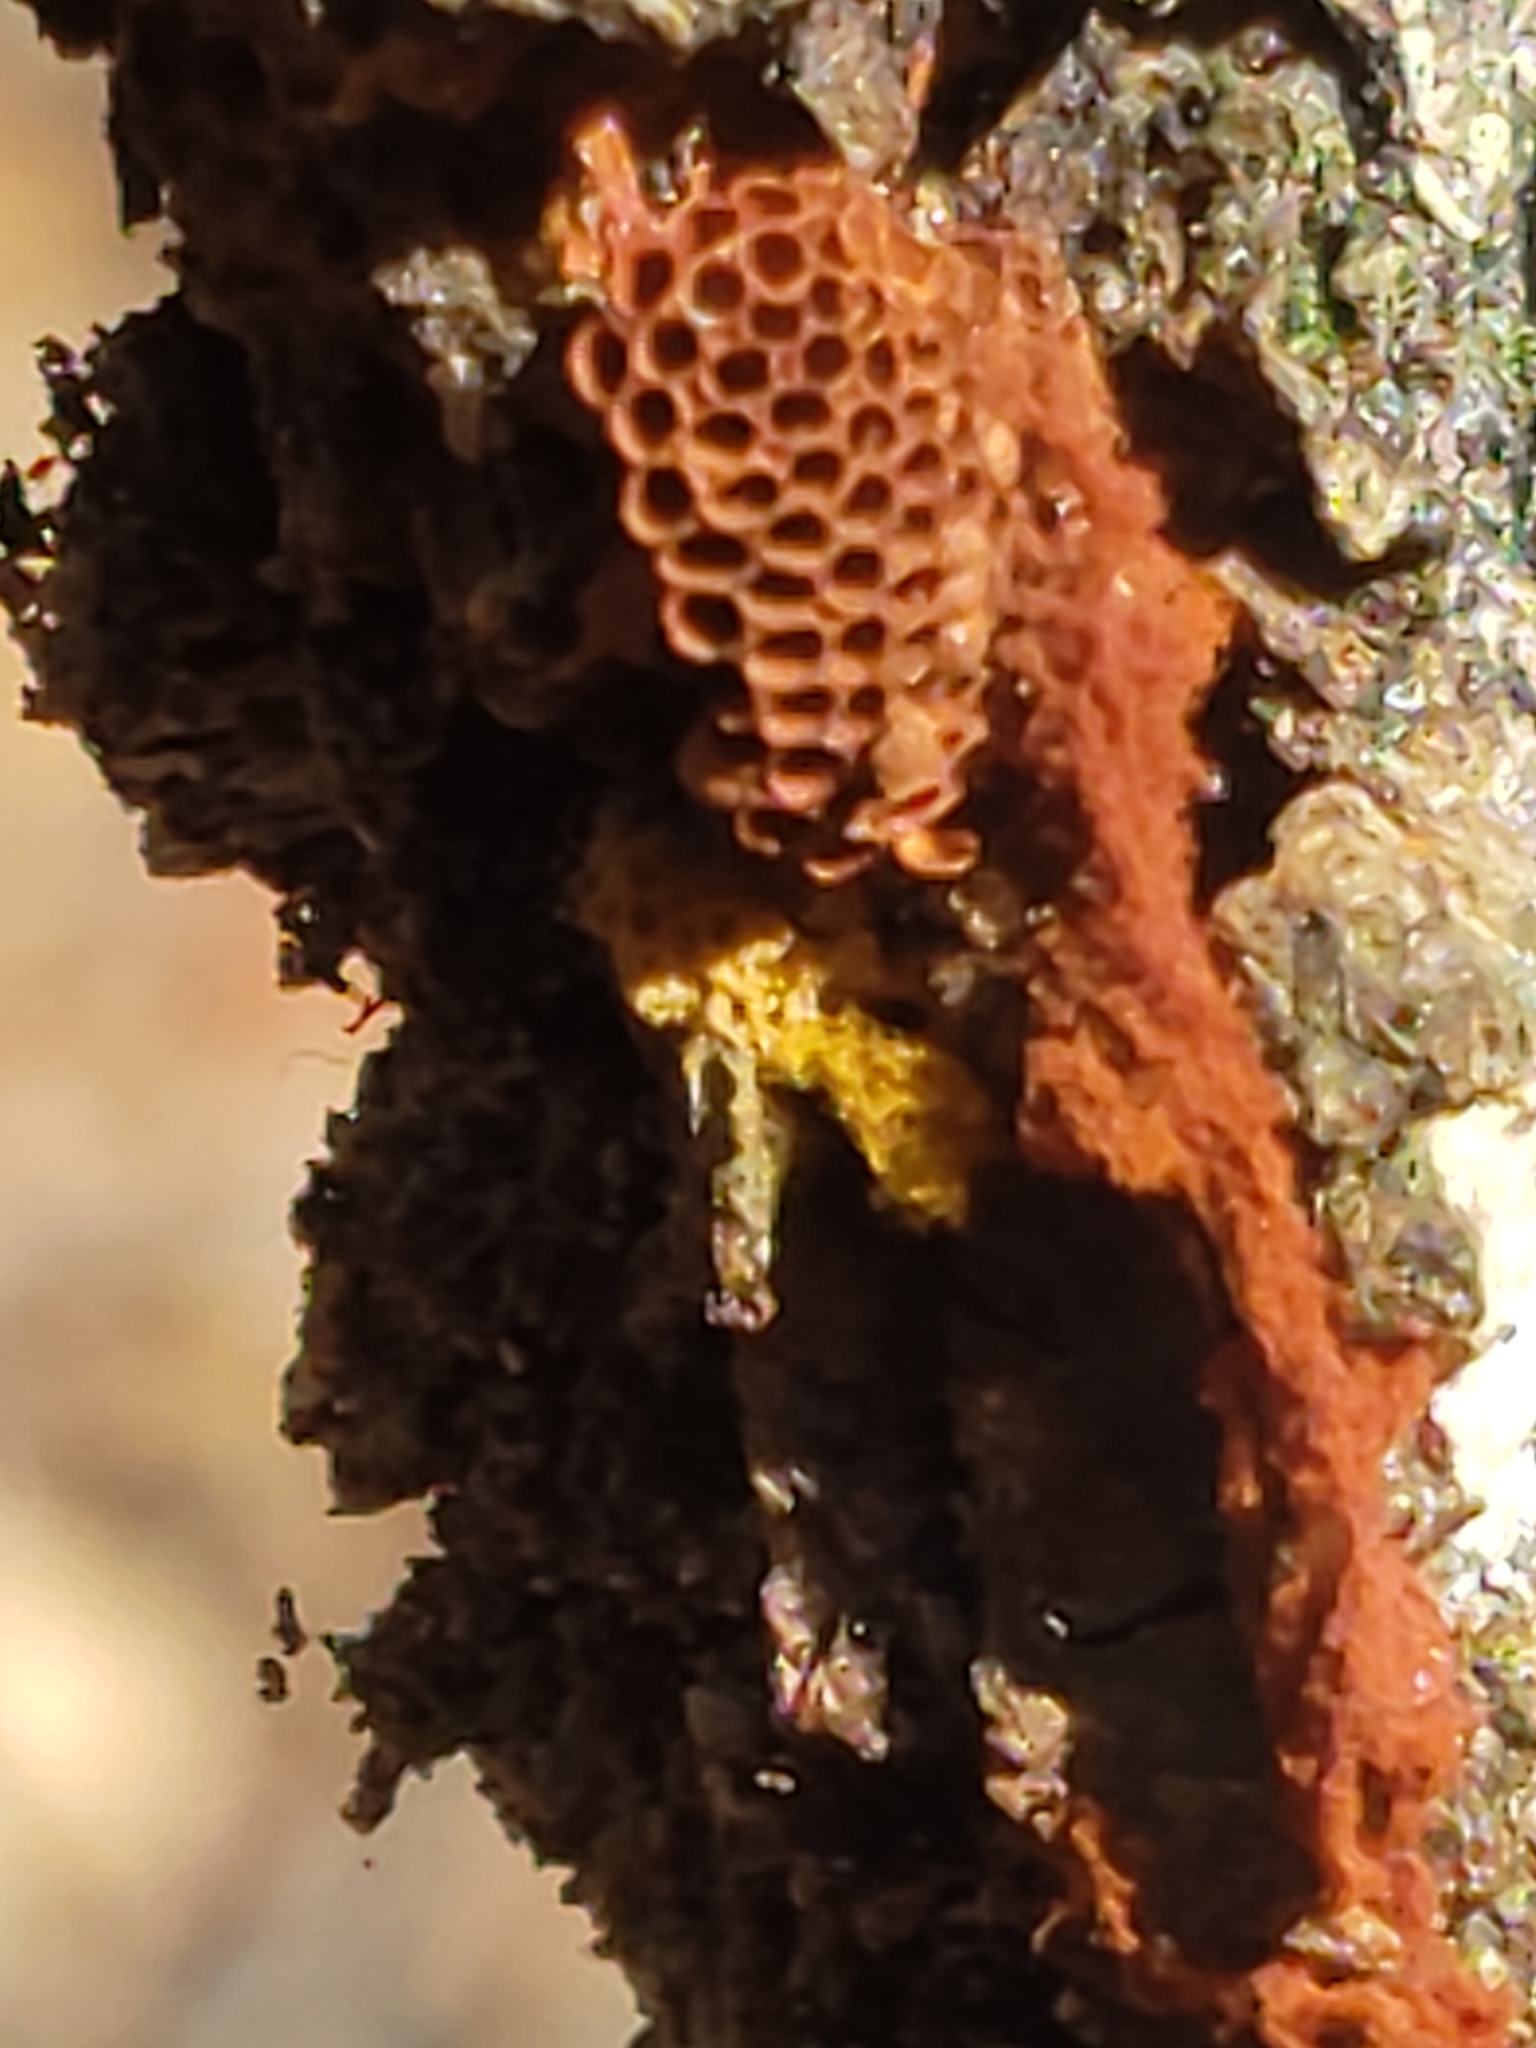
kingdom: Protozoa
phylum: Mycetozoa
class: Myxomycetes
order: Trichiales
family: Trichiaceae
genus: Metatrichia
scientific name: Metatrichia vesparia
